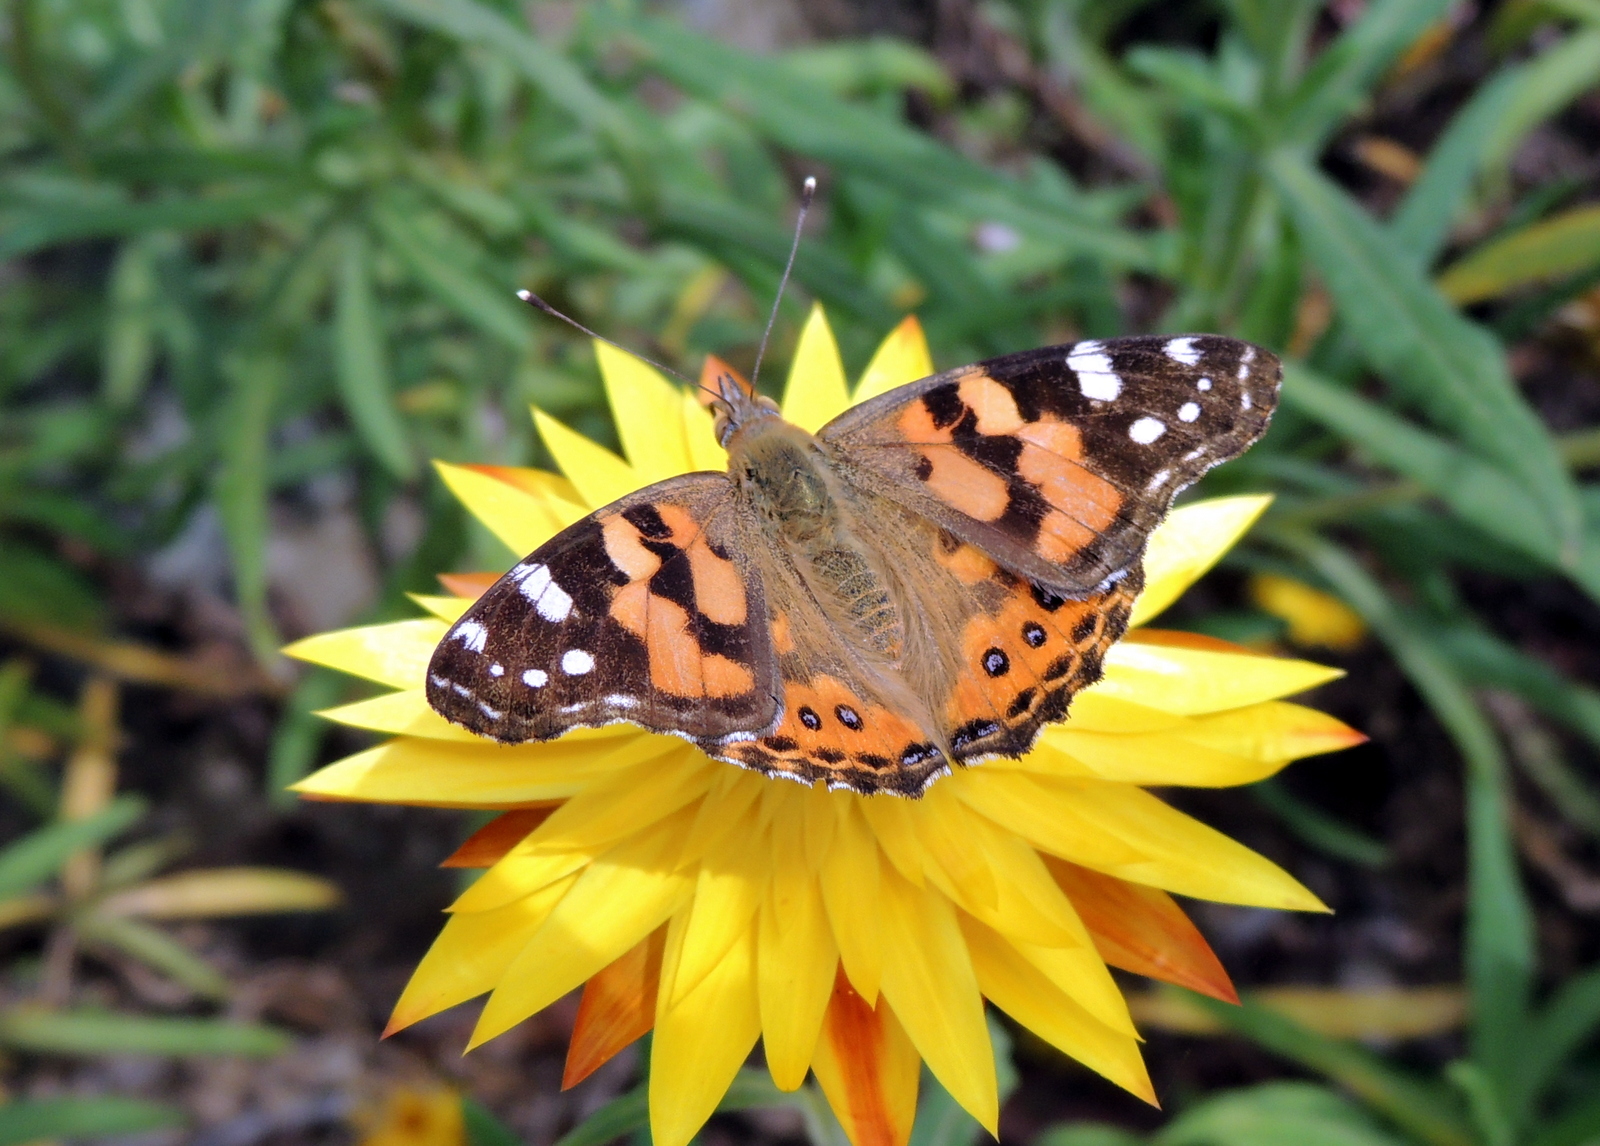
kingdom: Animalia
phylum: Arthropoda
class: Insecta
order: Lepidoptera
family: Nymphalidae
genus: Vanessa
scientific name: Vanessa kershawi
